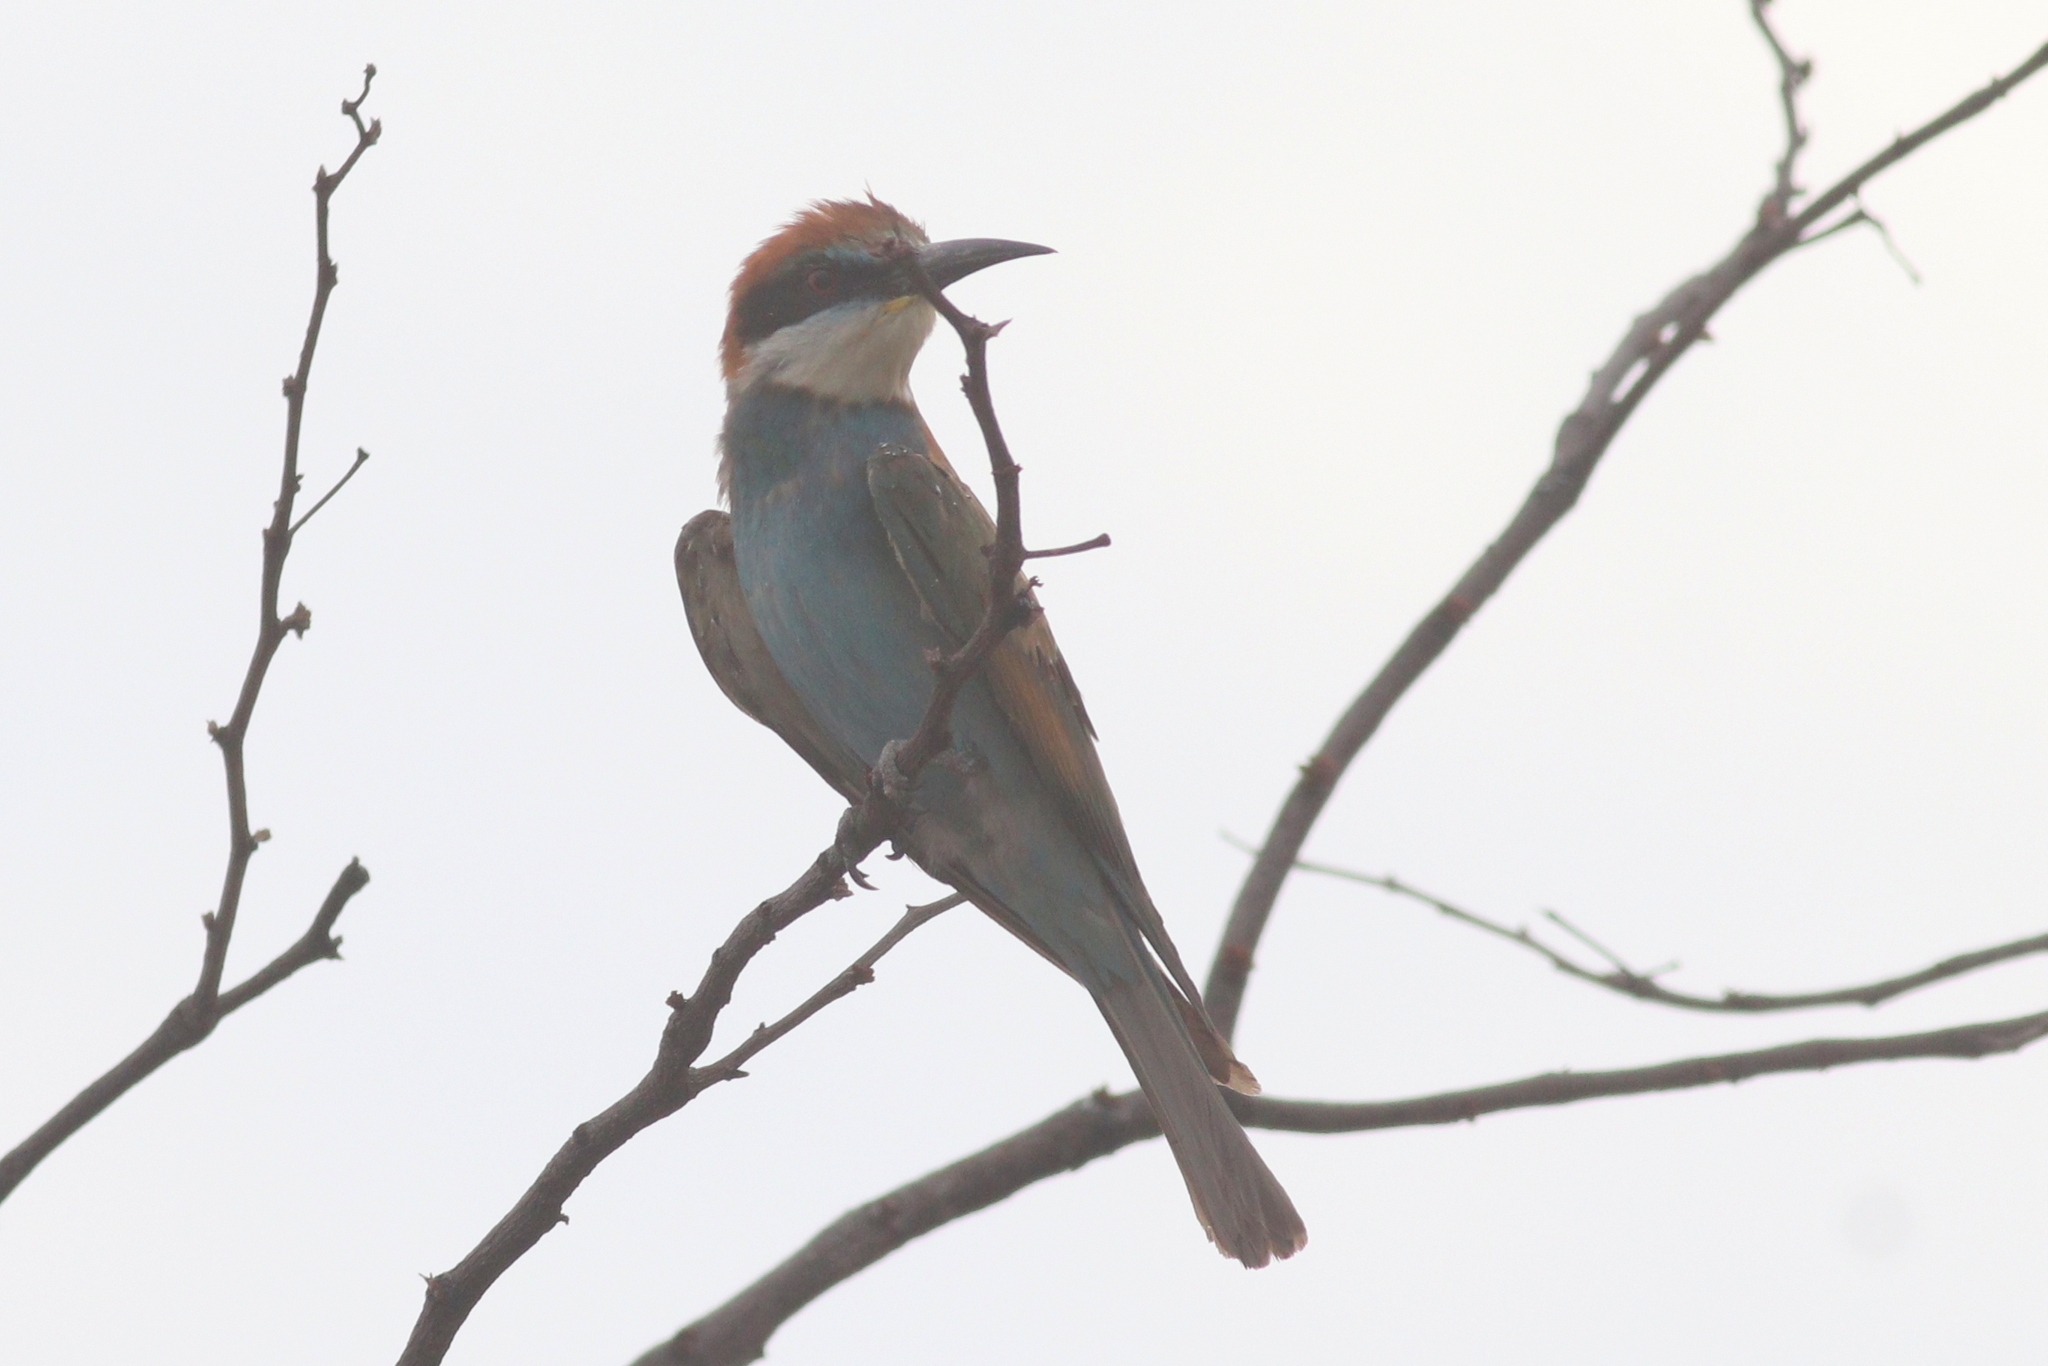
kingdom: Animalia
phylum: Chordata
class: Aves
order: Coraciiformes
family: Meropidae
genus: Merops
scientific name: Merops apiaster
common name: European bee-eater
